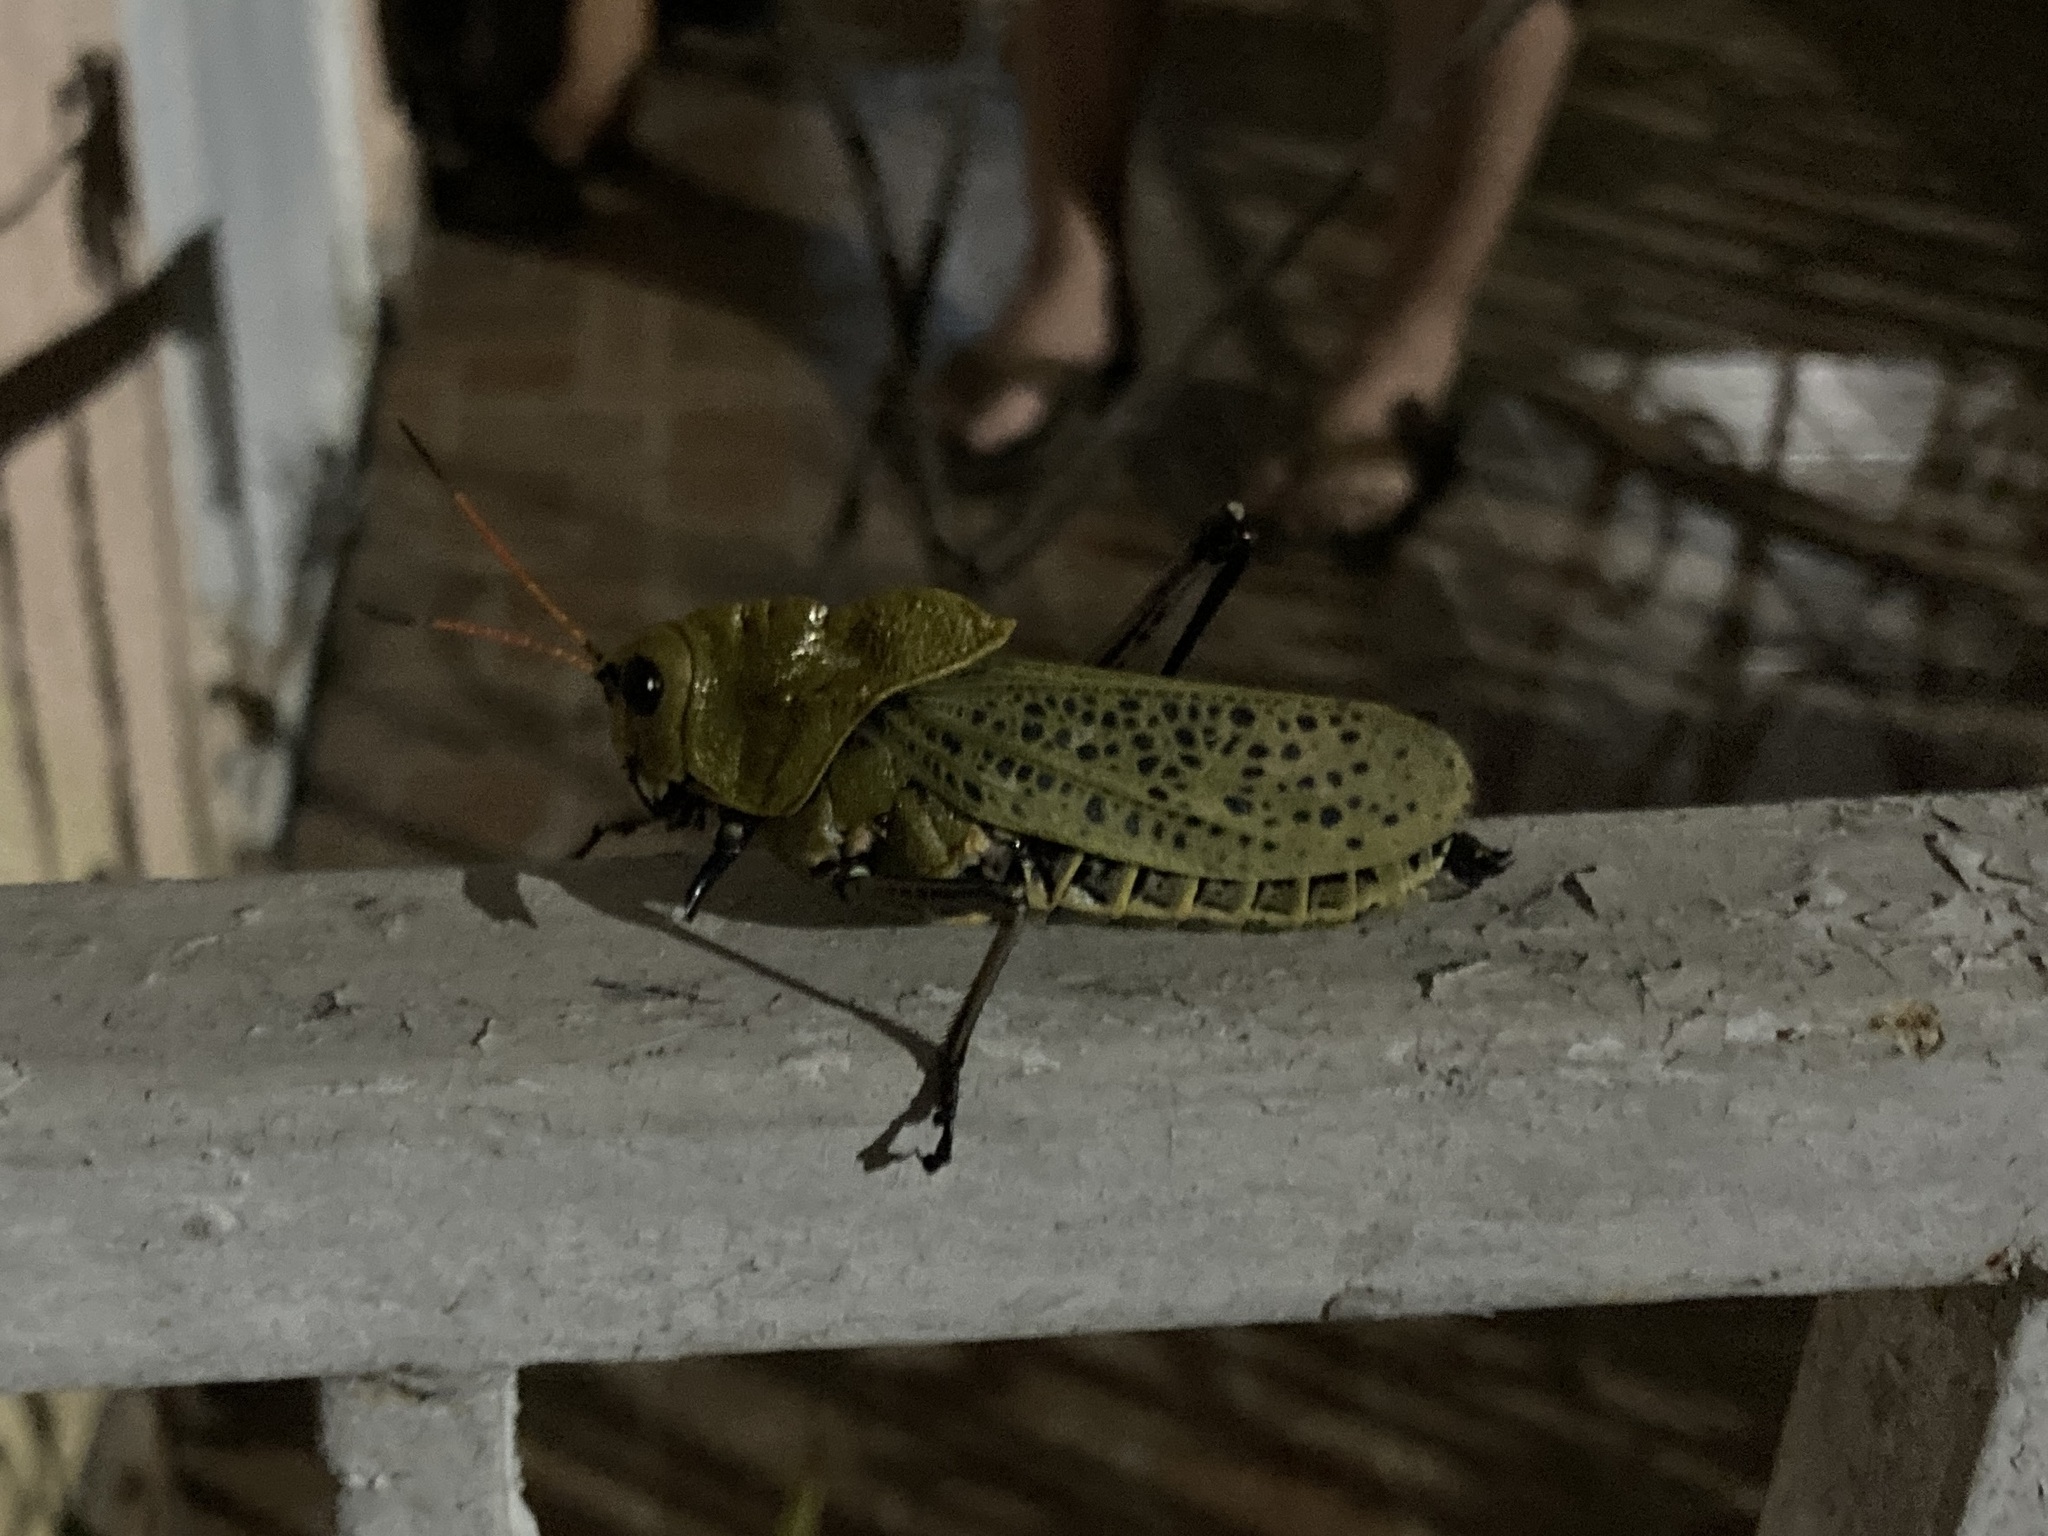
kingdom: Animalia
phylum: Arthropoda
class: Insecta
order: Orthoptera
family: Romaleidae
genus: Romalea
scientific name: Romalea
